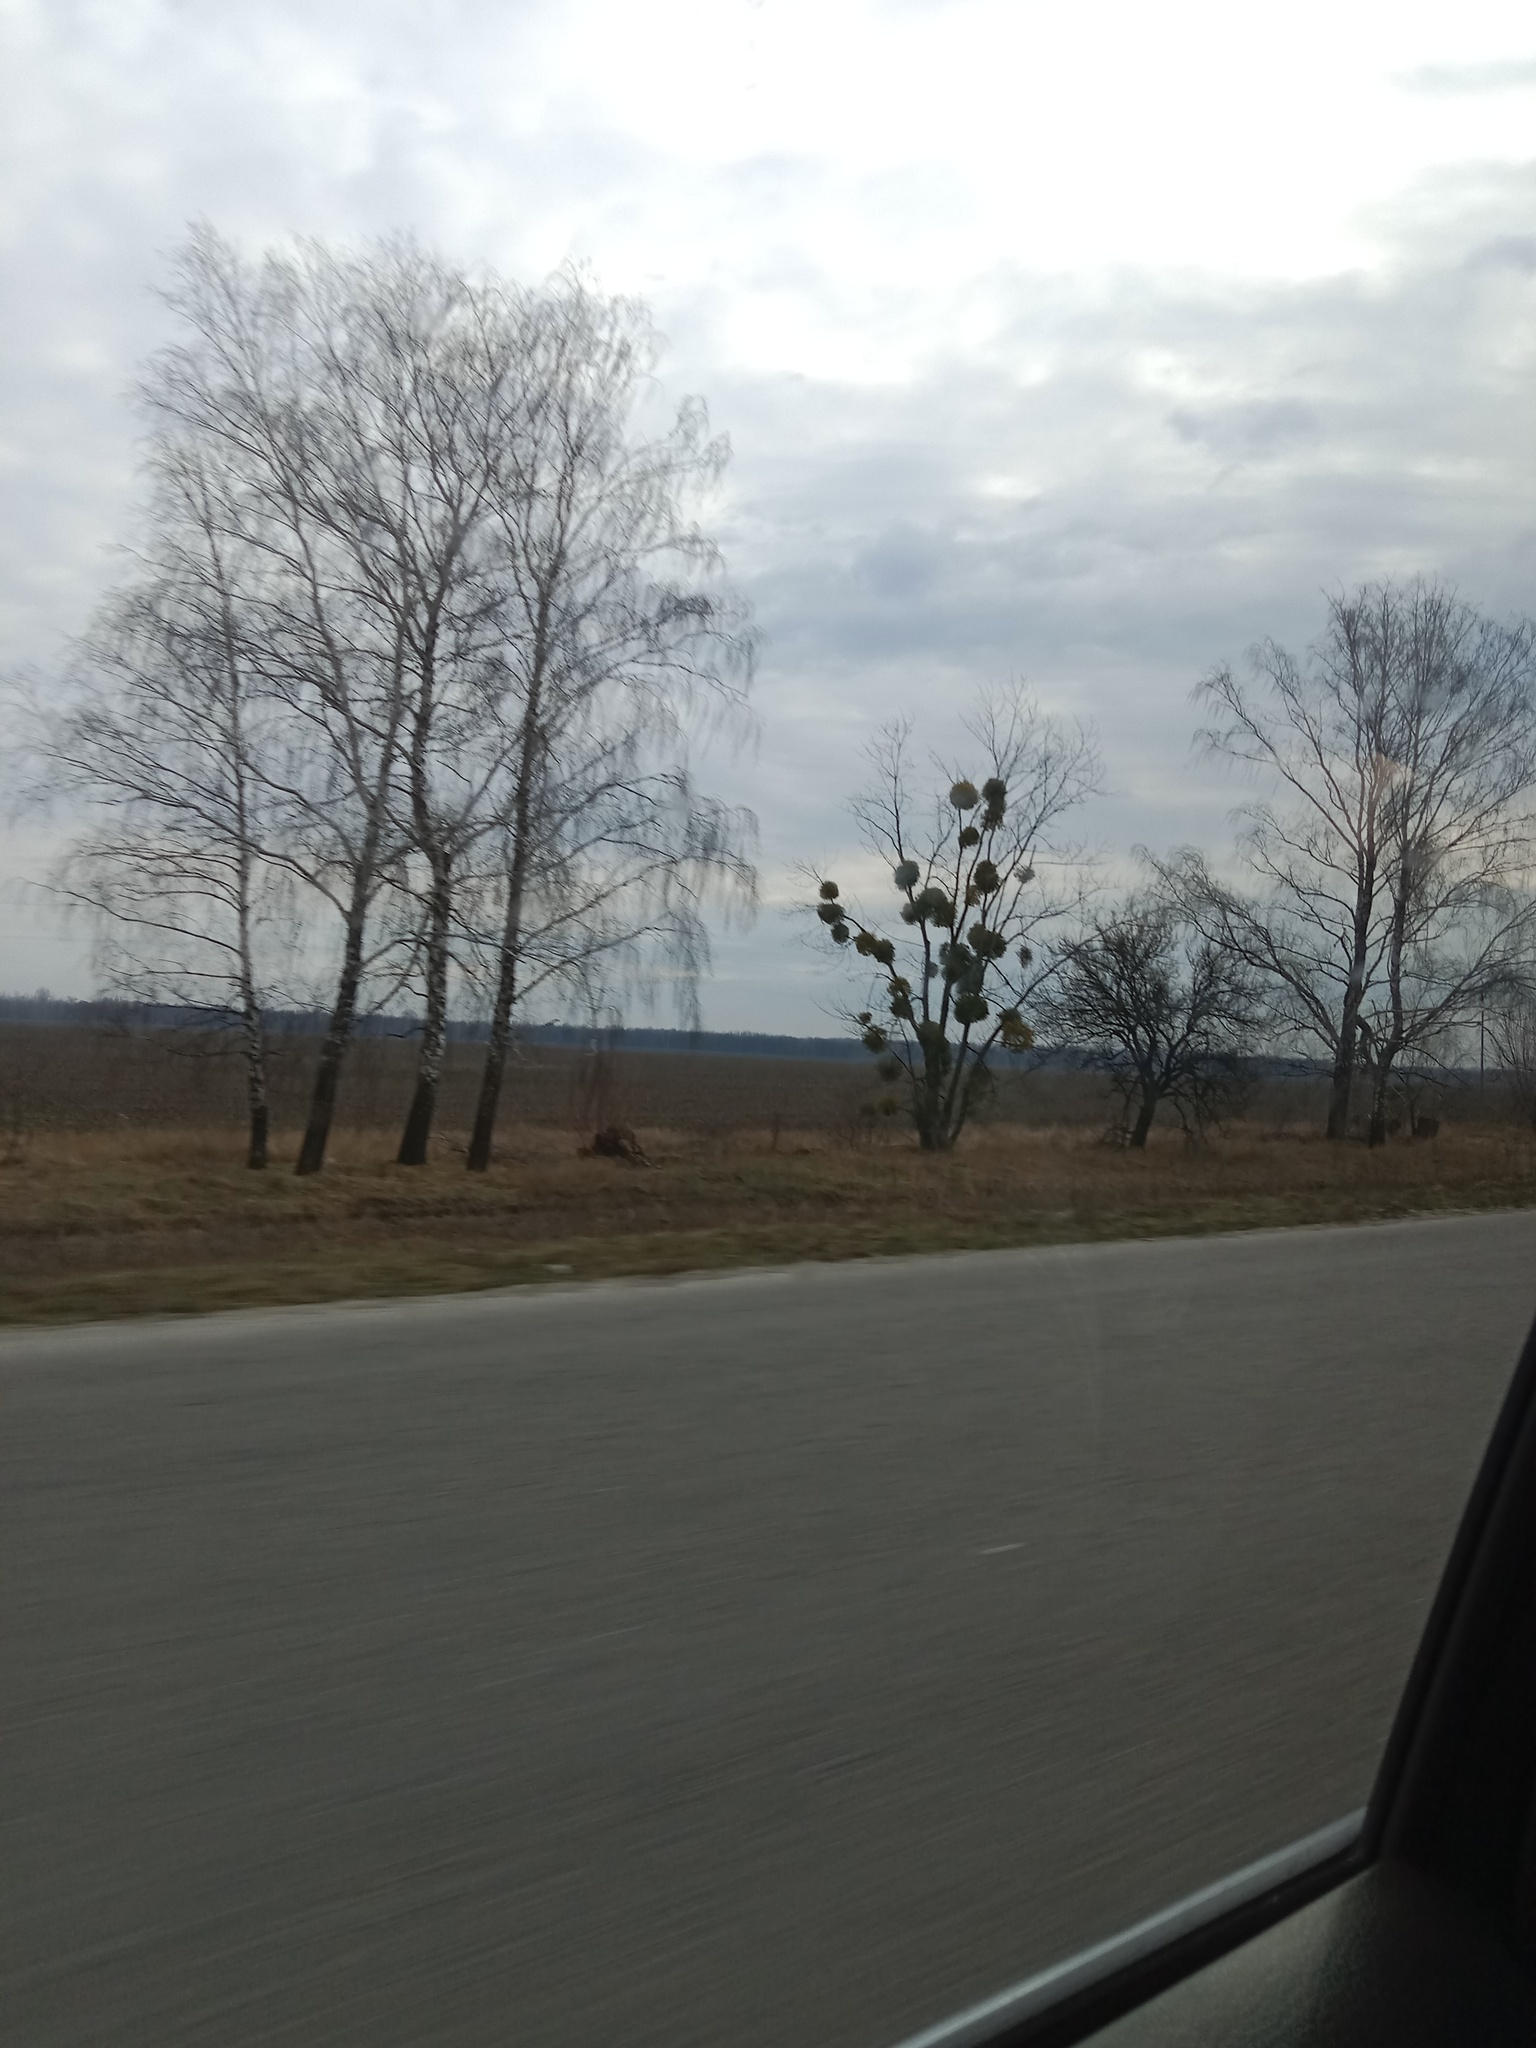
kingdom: Plantae
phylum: Tracheophyta
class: Magnoliopsida
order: Santalales
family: Viscaceae
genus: Viscum
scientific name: Viscum album
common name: Mistletoe
